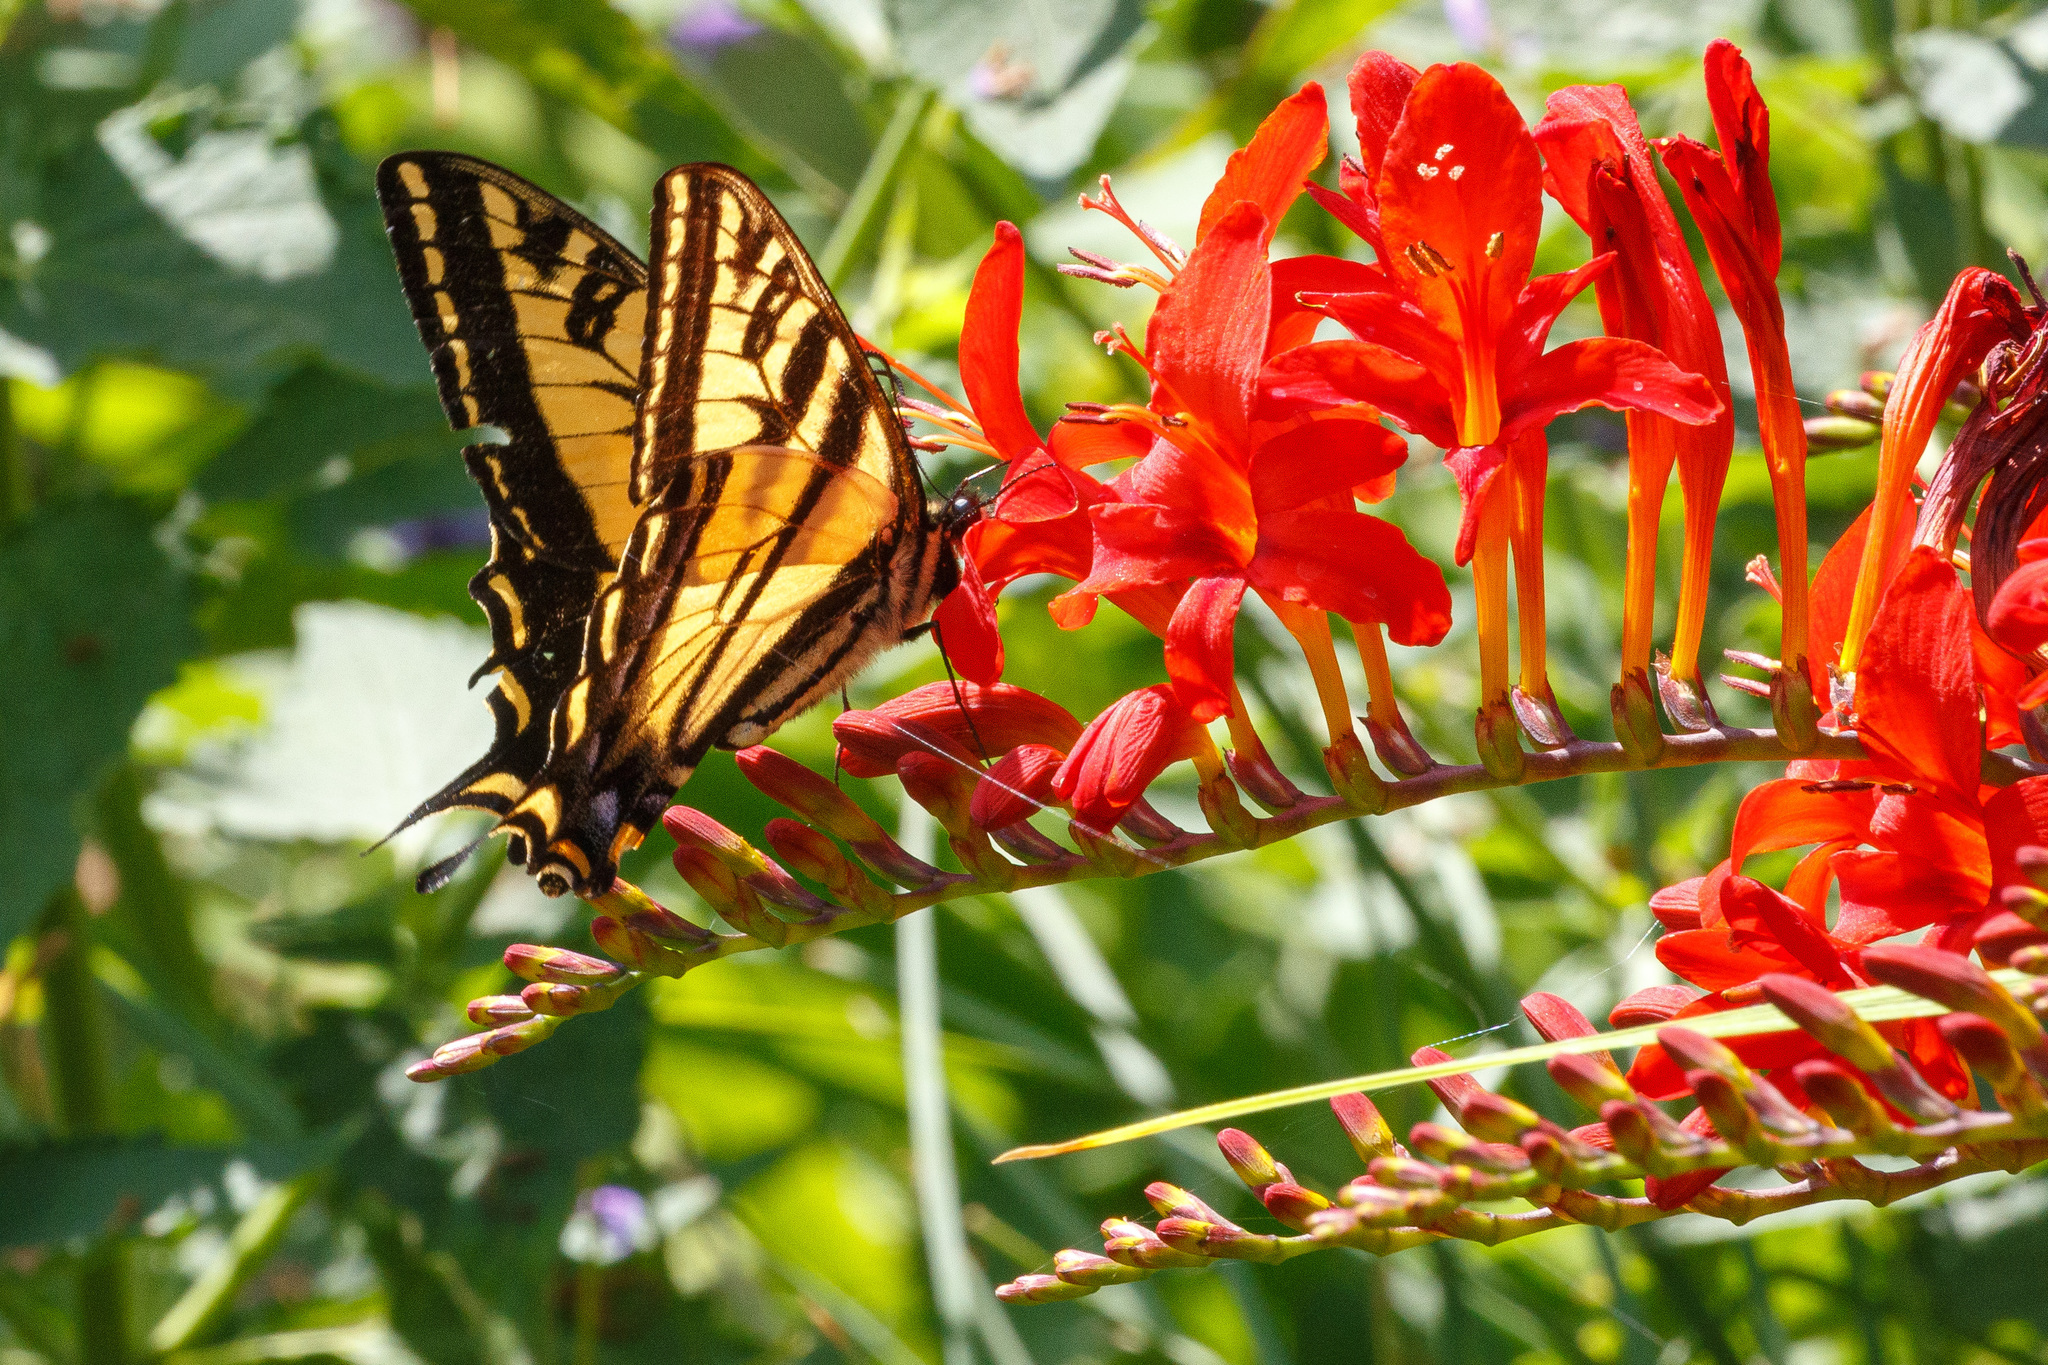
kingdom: Animalia
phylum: Arthropoda
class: Insecta
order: Lepidoptera
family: Papilionidae
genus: Papilio
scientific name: Papilio rutulus
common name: Western tiger swallowtail
